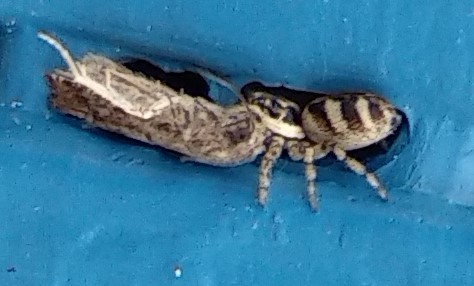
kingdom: Animalia
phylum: Arthropoda
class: Arachnida
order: Araneae
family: Salticidae
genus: Salticus
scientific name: Salticus scenicus
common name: Zebra jumper
